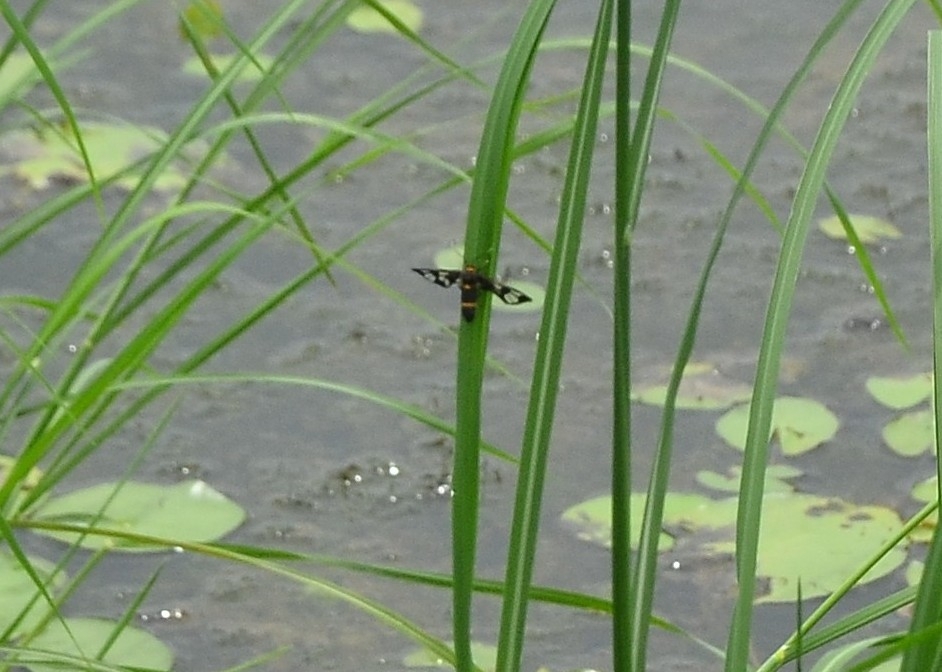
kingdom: Animalia
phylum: Arthropoda
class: Insecta
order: Lepidoptera
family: Erebidae
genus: Syntomoides
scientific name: Syntomoides imaon
